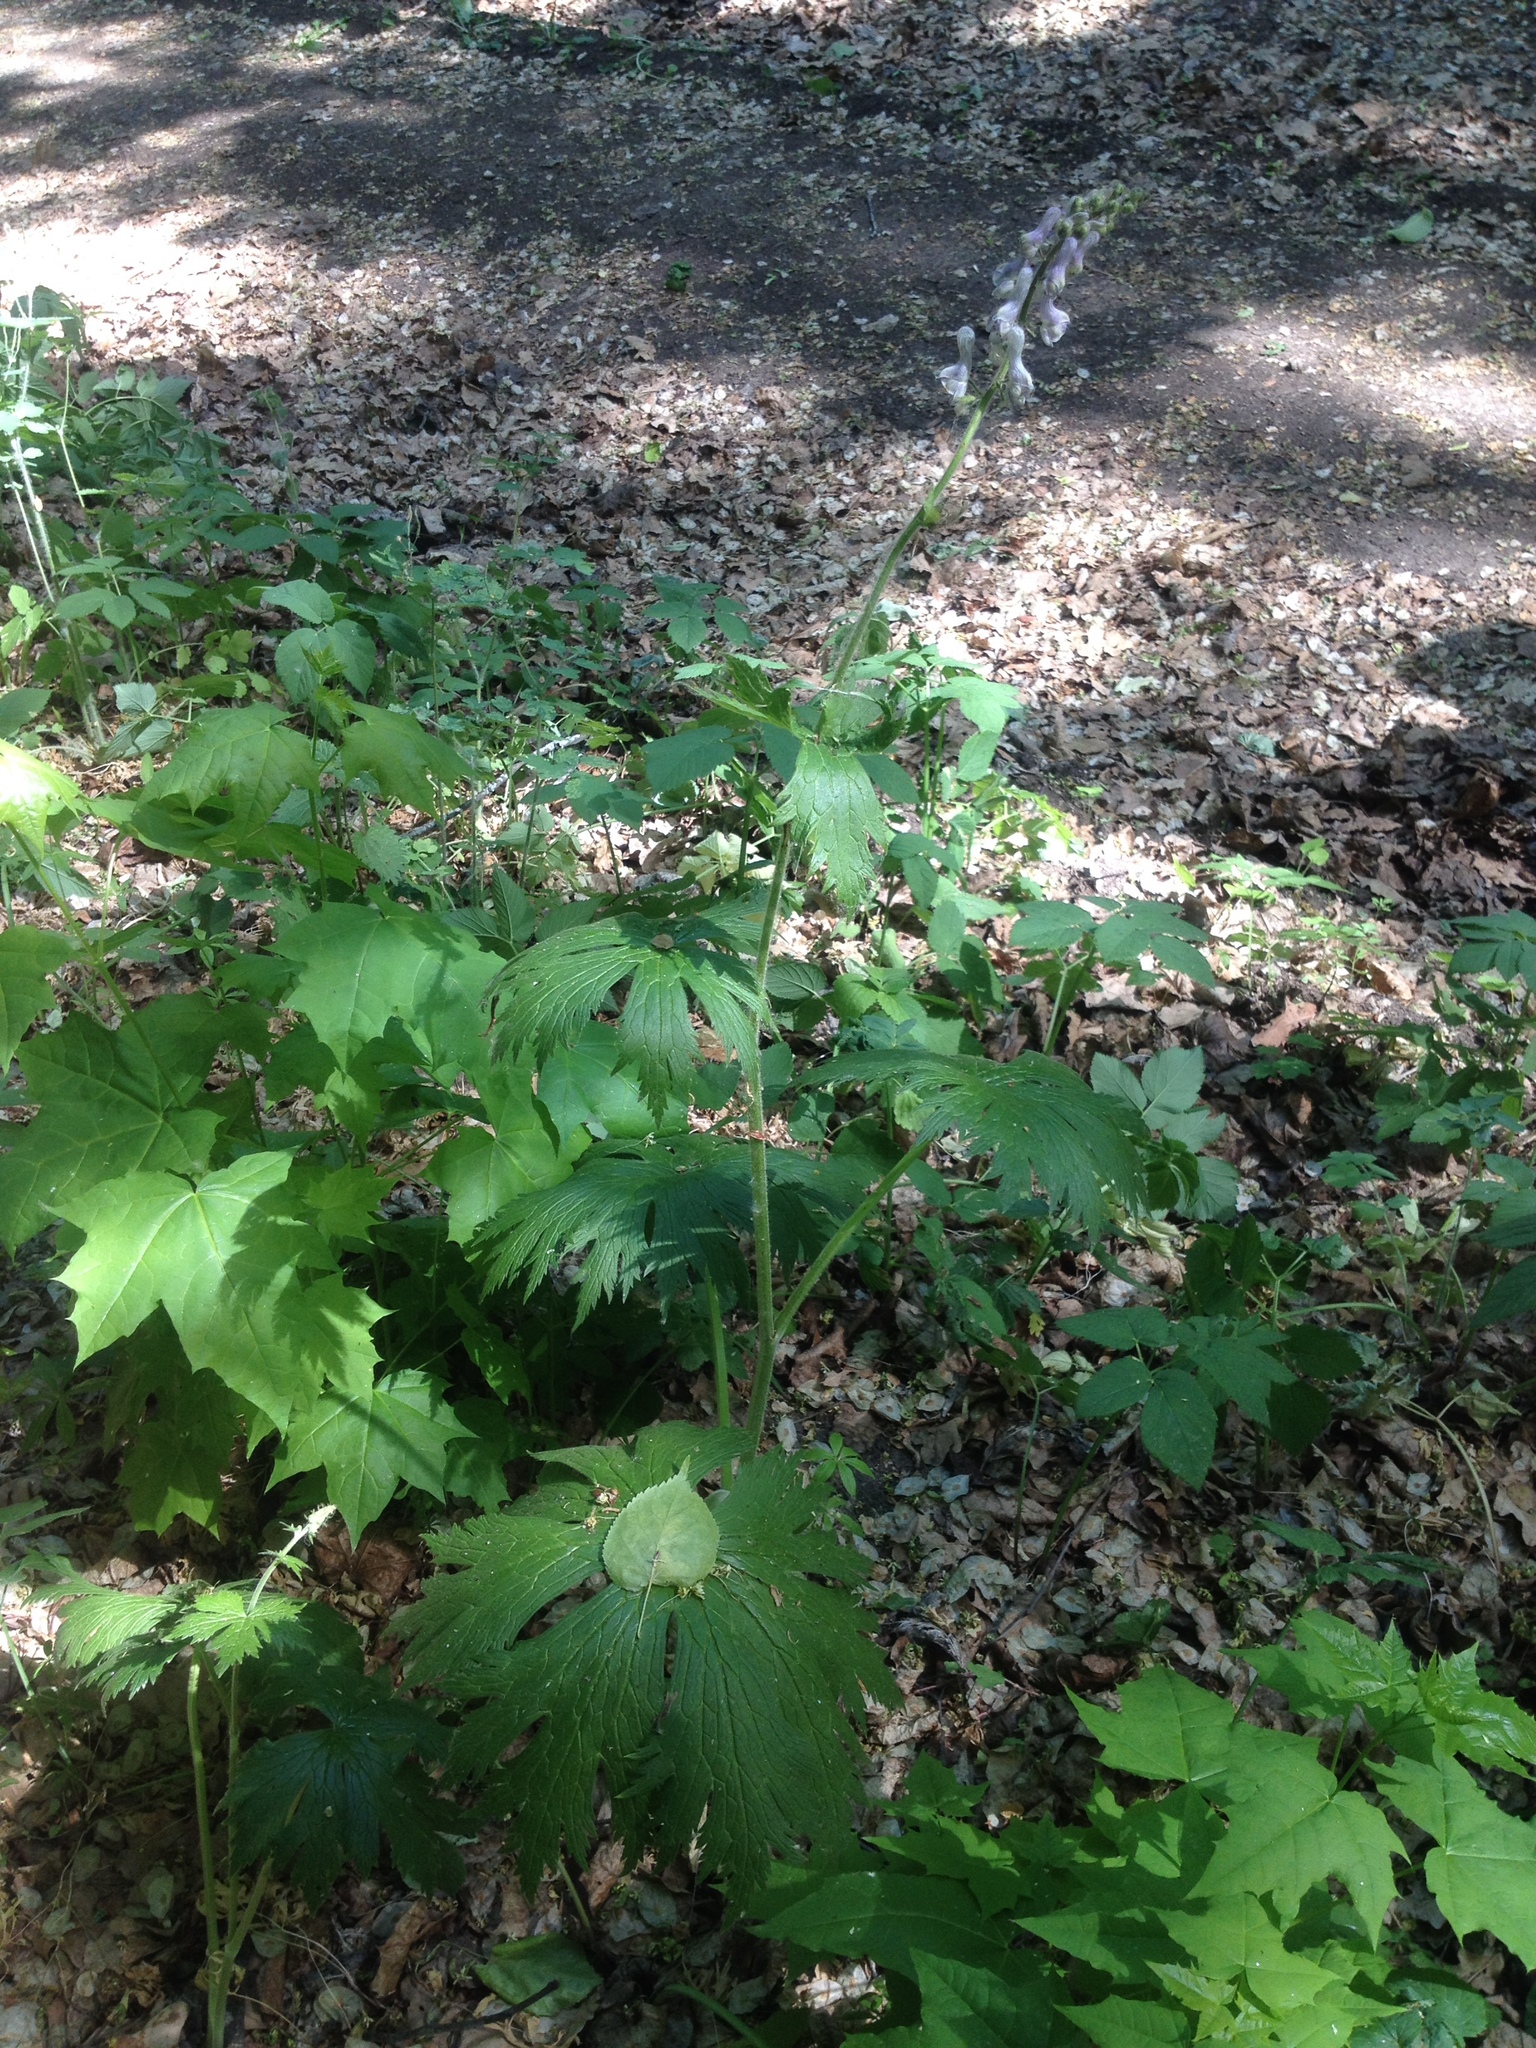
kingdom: Plantae
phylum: Tracheophyta
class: Magnoliopsida
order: Ranunculales
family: Ranunculaceae
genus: Aconitum
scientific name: Aconitum septentrionale
